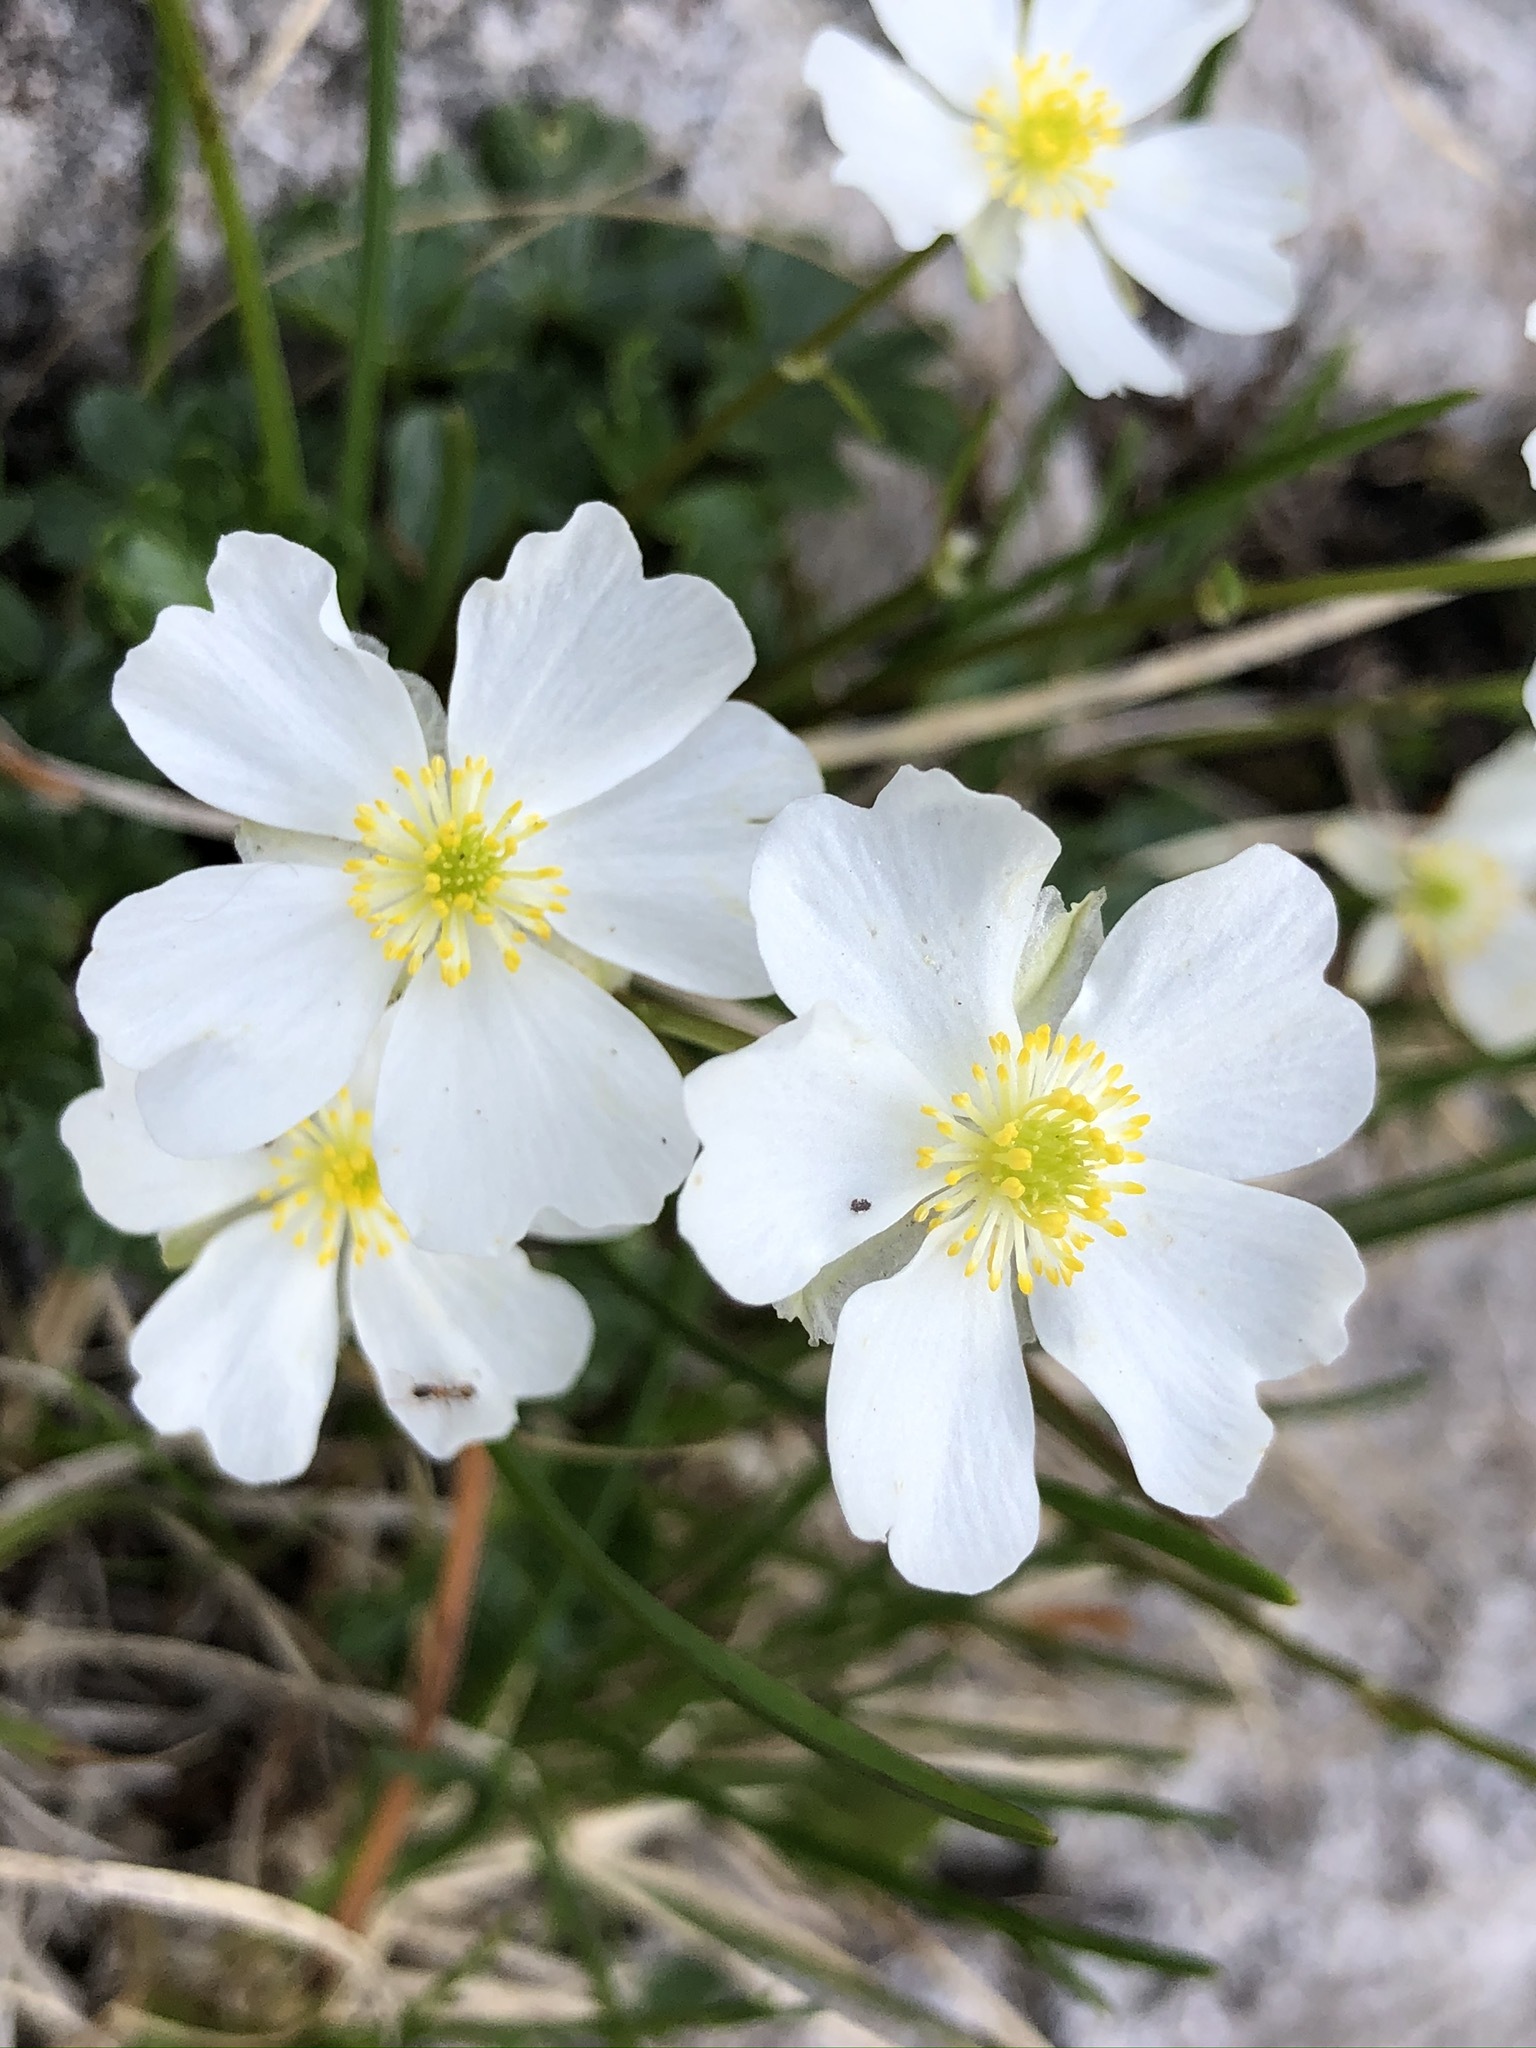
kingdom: Plantae
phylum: Tracheophyta
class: Magnoliopsida
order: Ranunculales
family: Ranunculaceae
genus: Ranunculus
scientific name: Ranunculus alpestris
